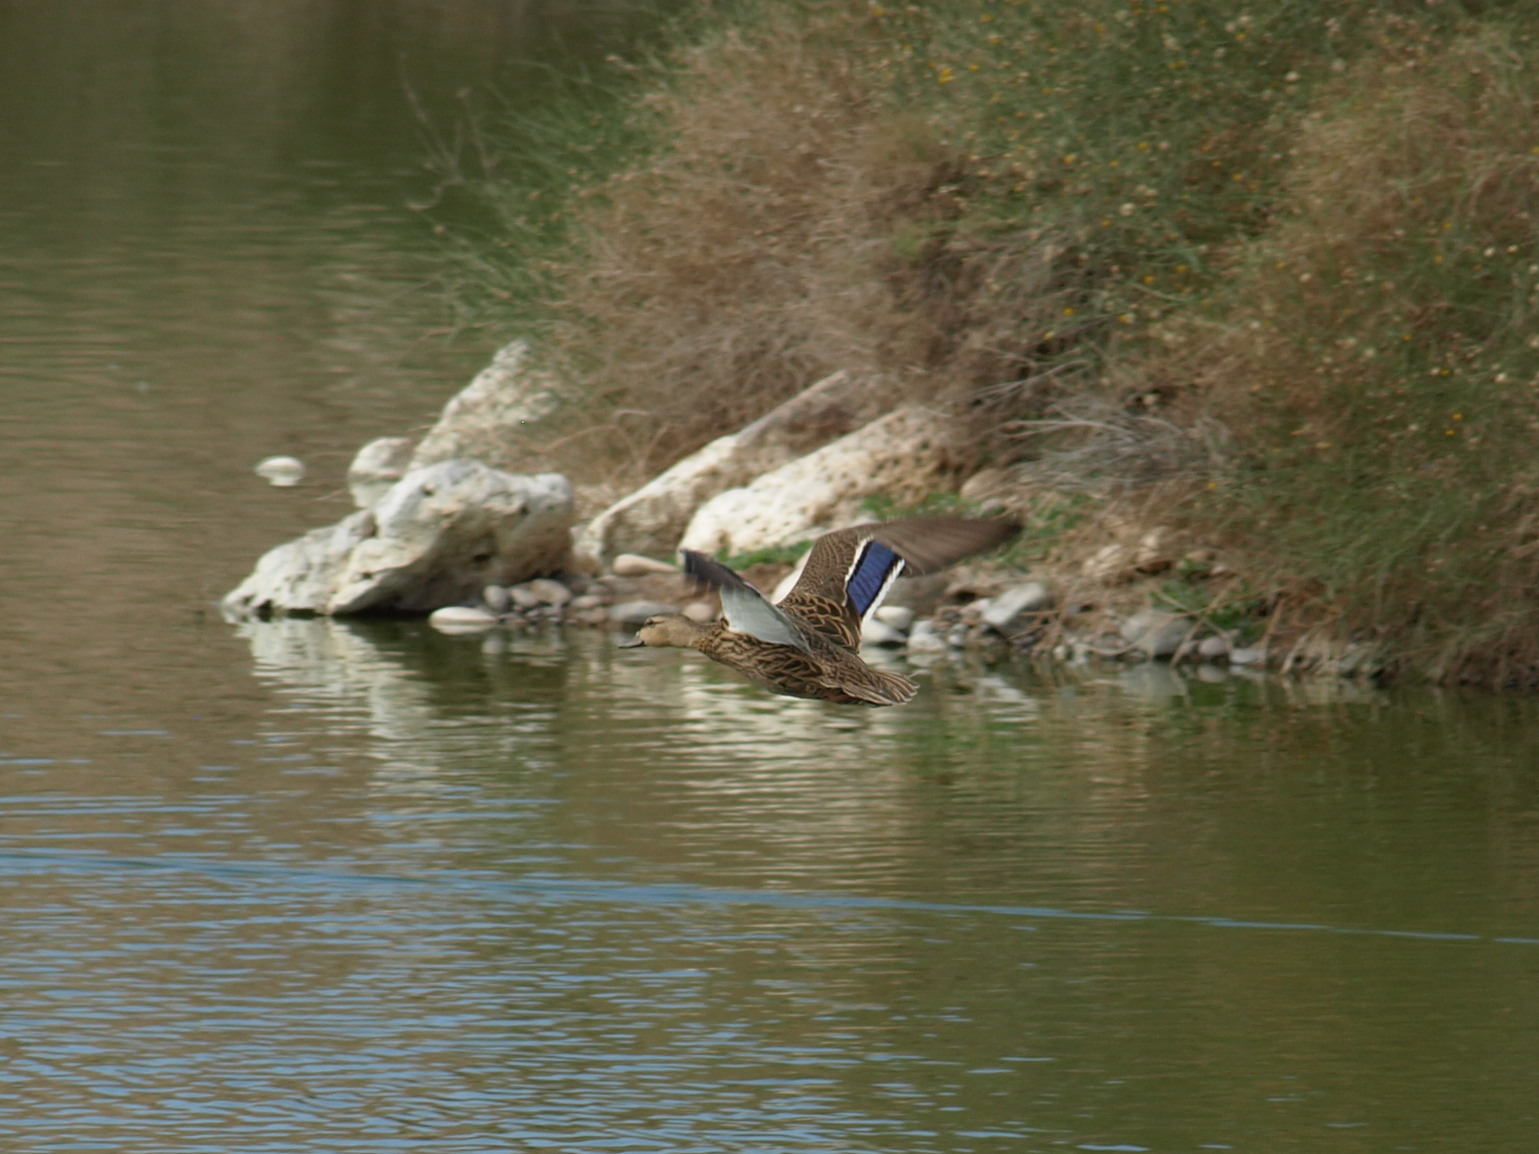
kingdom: Animalia
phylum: Chordata
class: Aves
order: Anseriformes
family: Anatidae
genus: Anas
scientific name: Anas diazi
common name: Mexican duck
